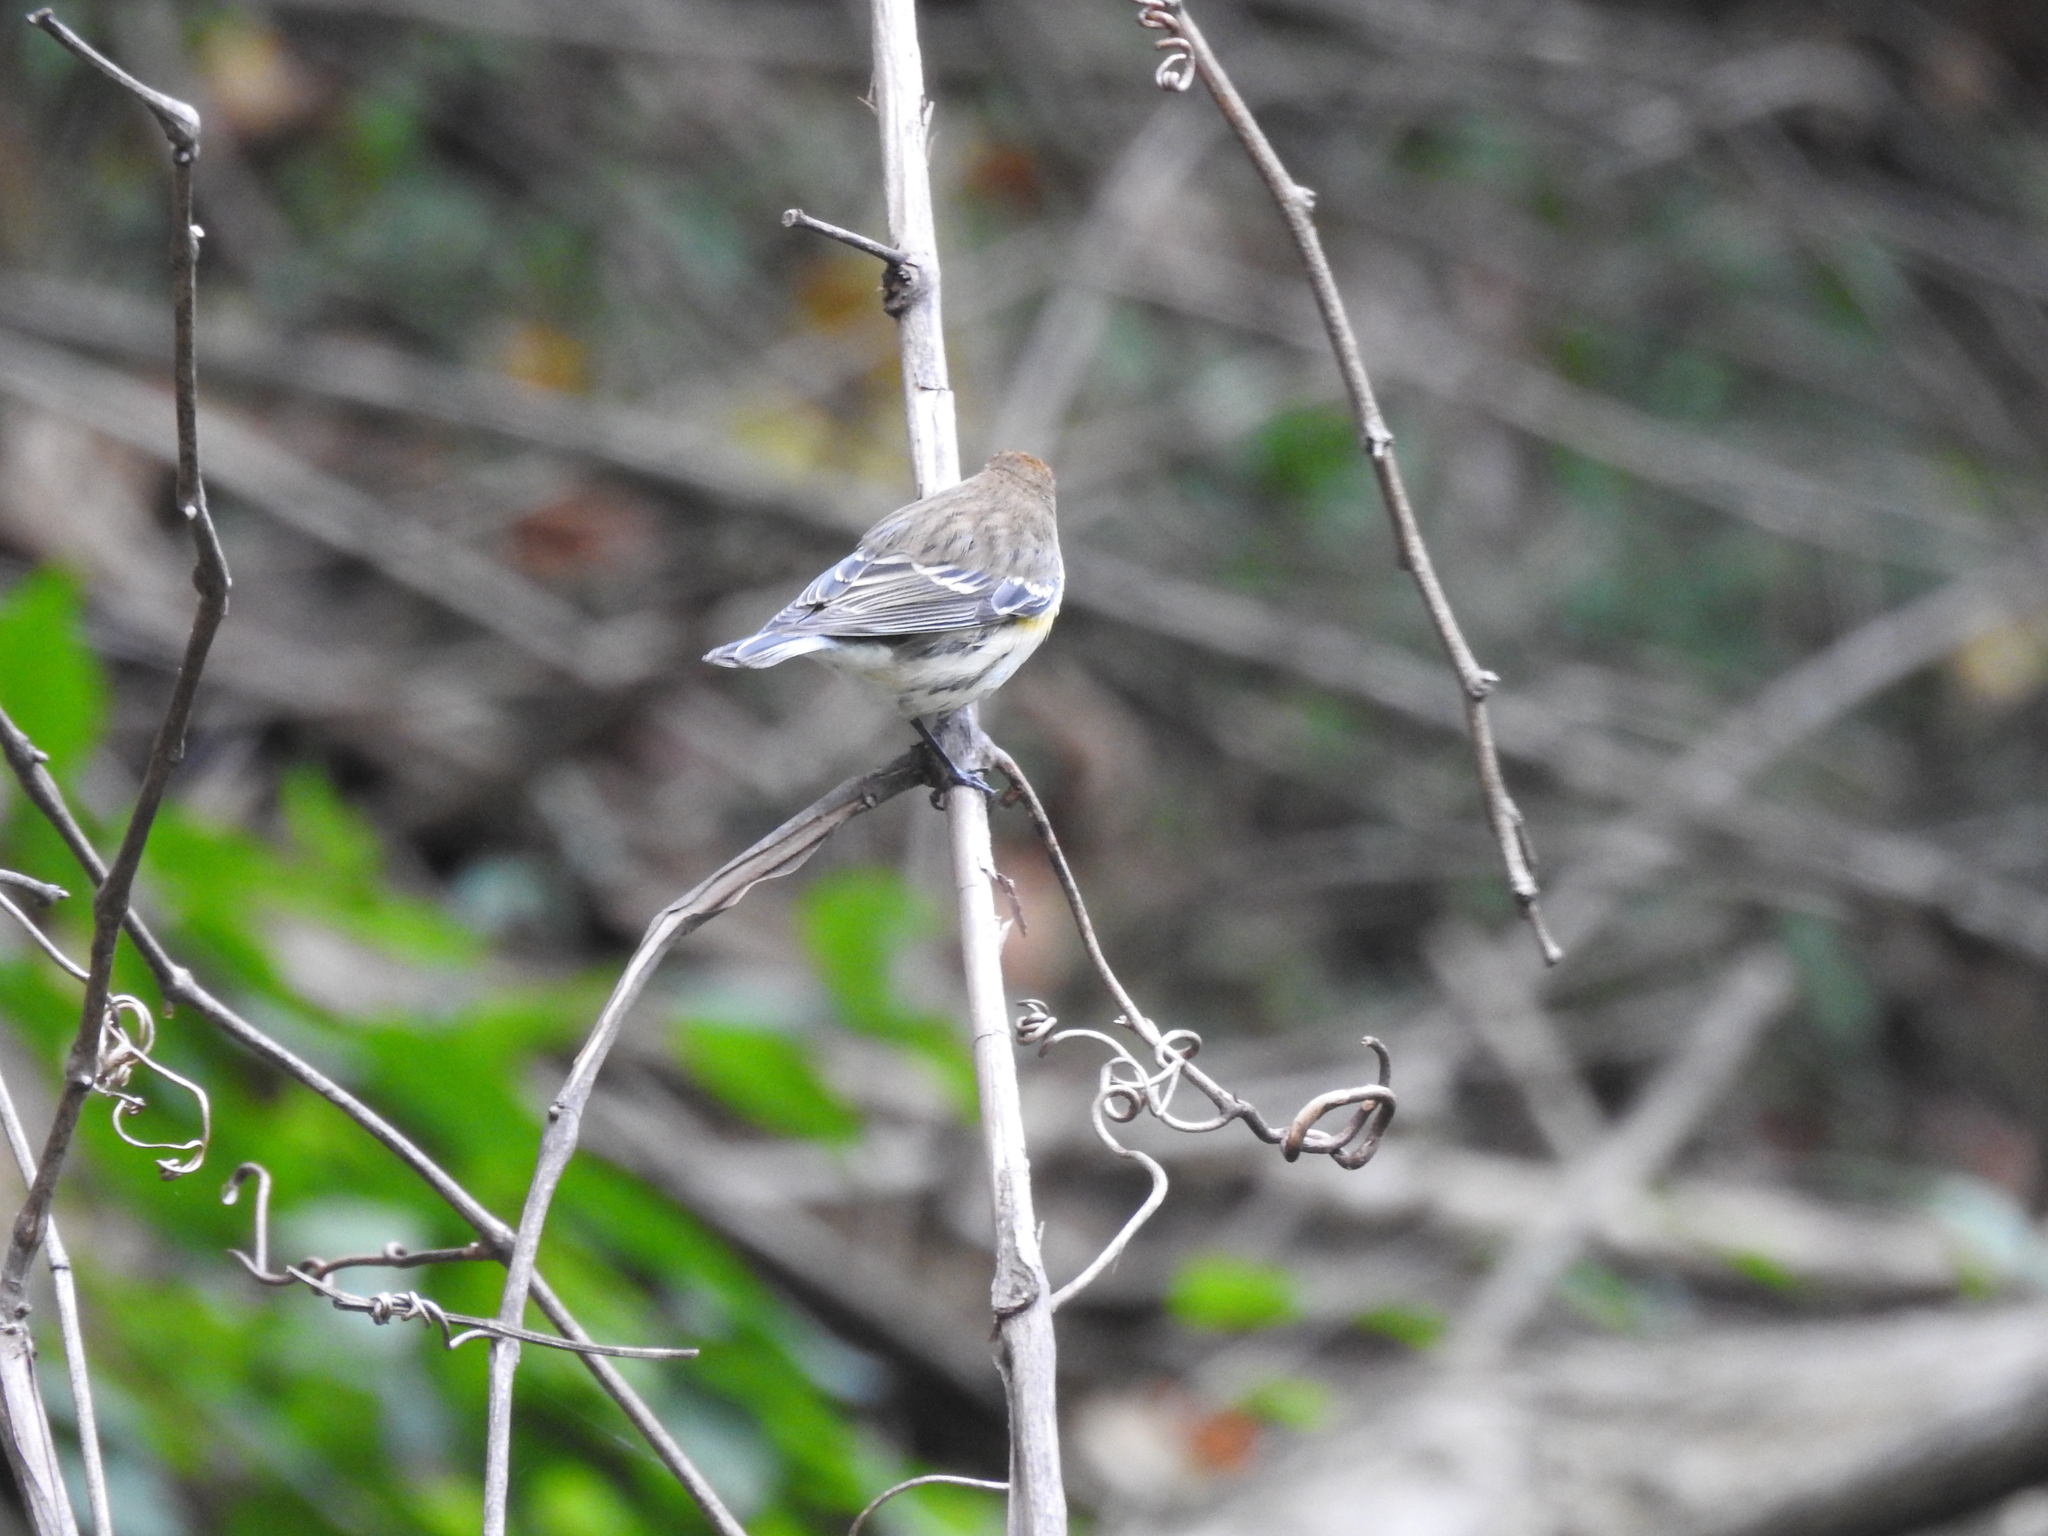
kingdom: Animalia
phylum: Chordata
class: Aves
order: Passeriformes
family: Parulidae
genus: Setophaga
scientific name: Setophaga coronata
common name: Myrtle warbler
